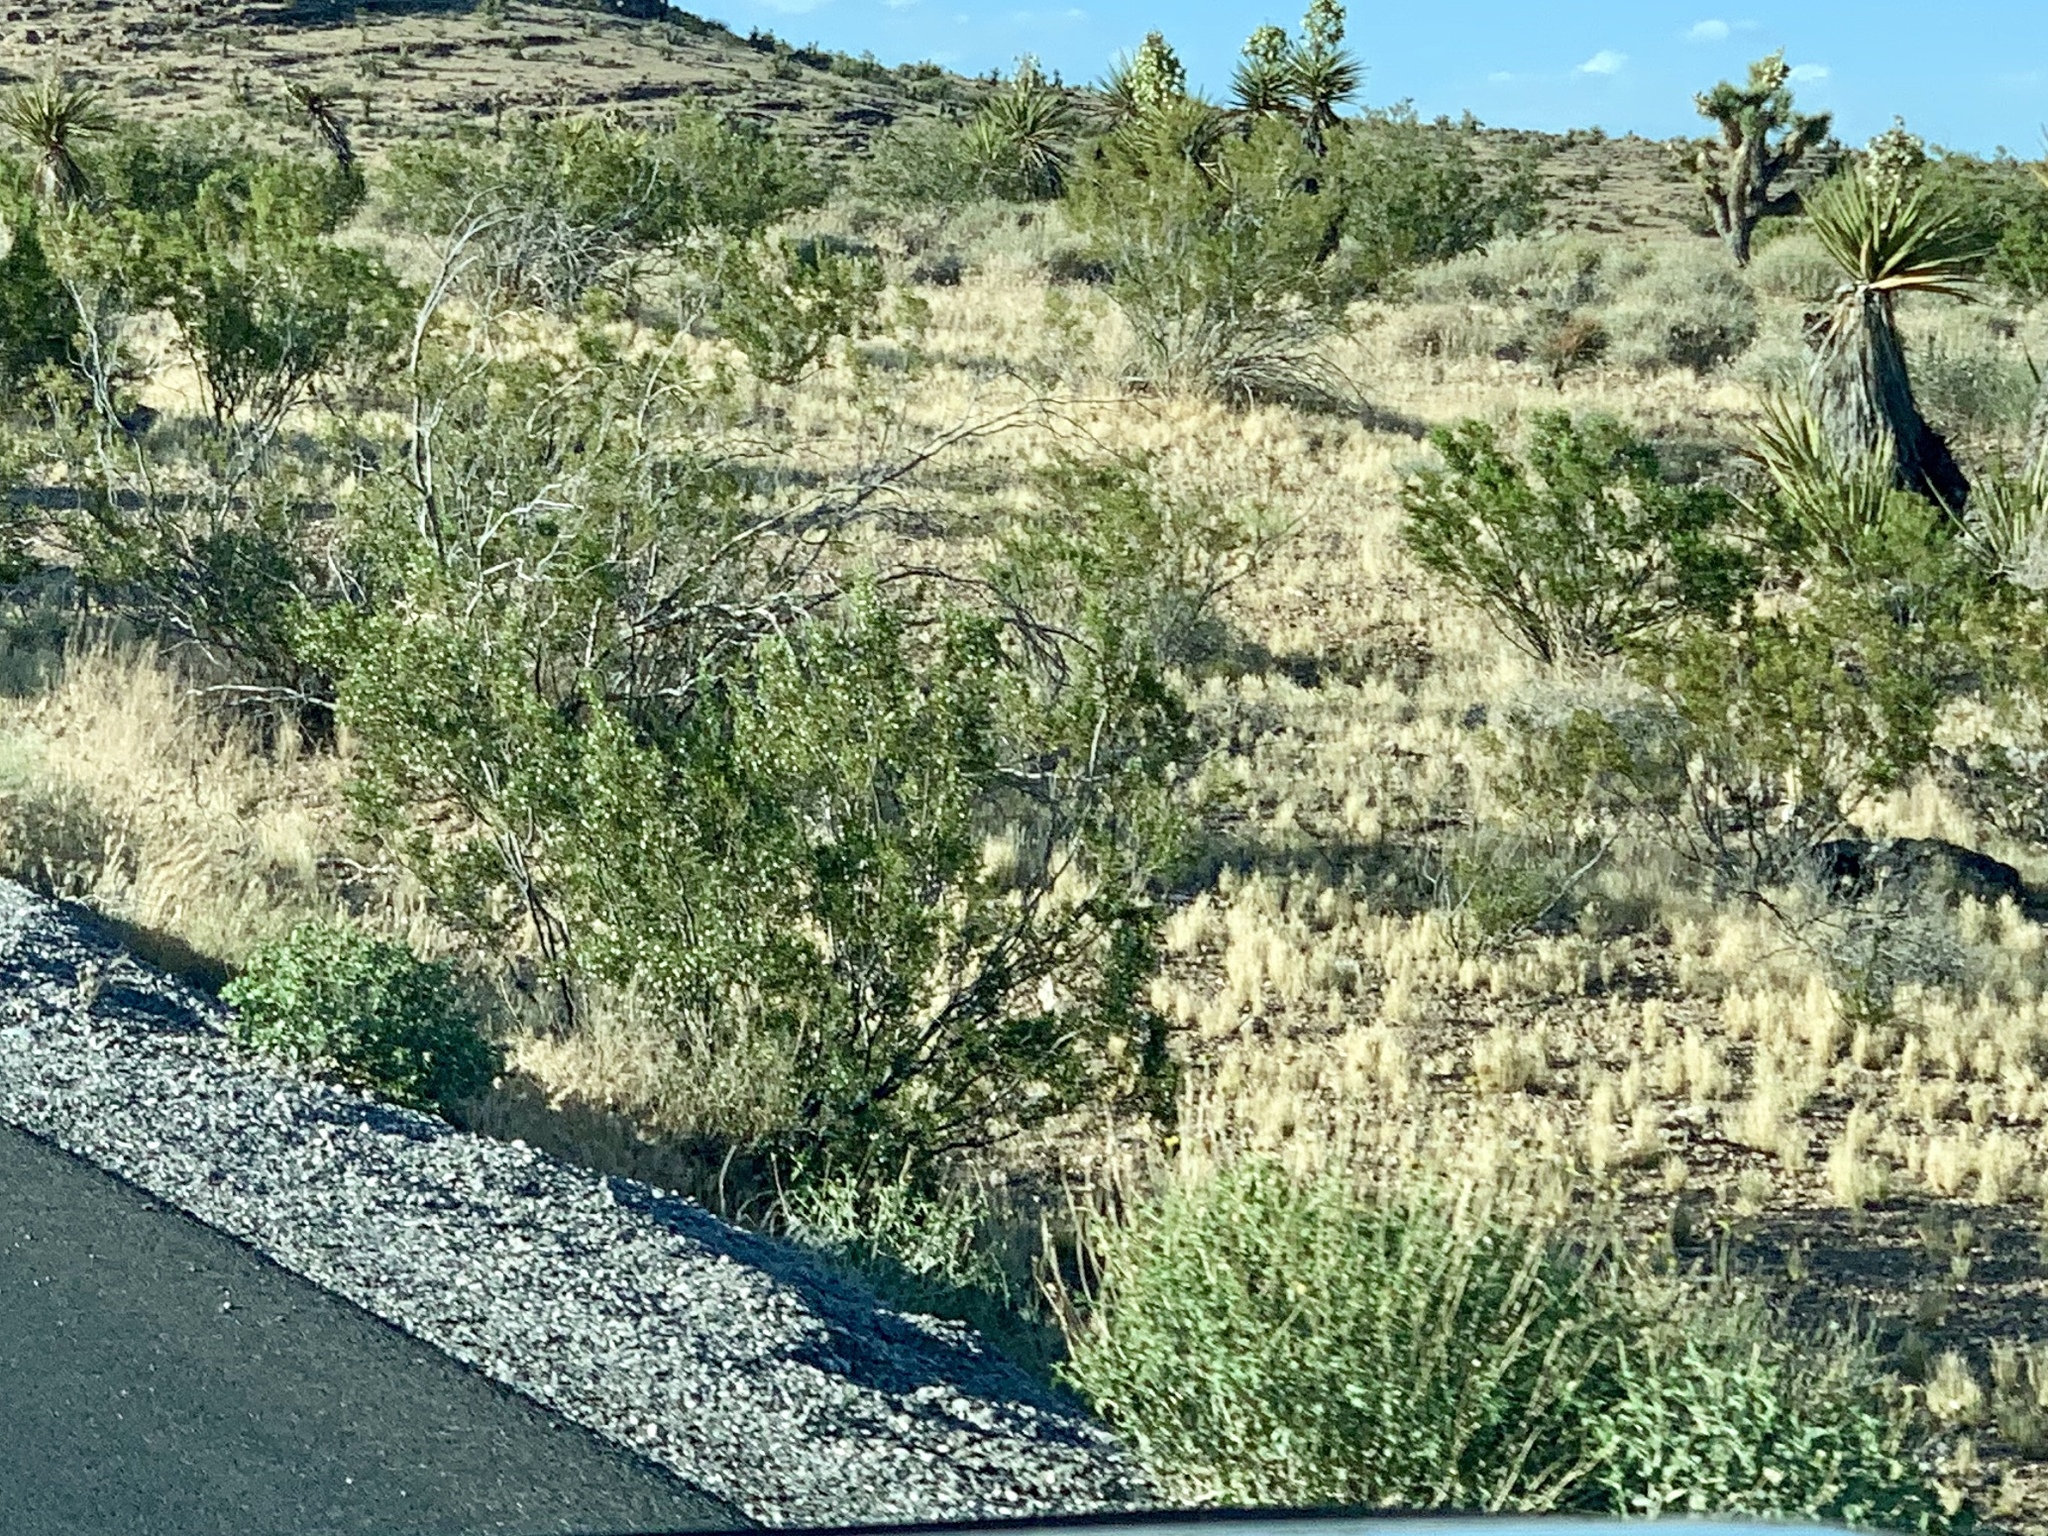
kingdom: Plantae
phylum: Tracheophyta
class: Magnoliopsida
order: Zygophyllales
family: Zygophyllaceae
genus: Larrea
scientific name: Larrea tridentata
